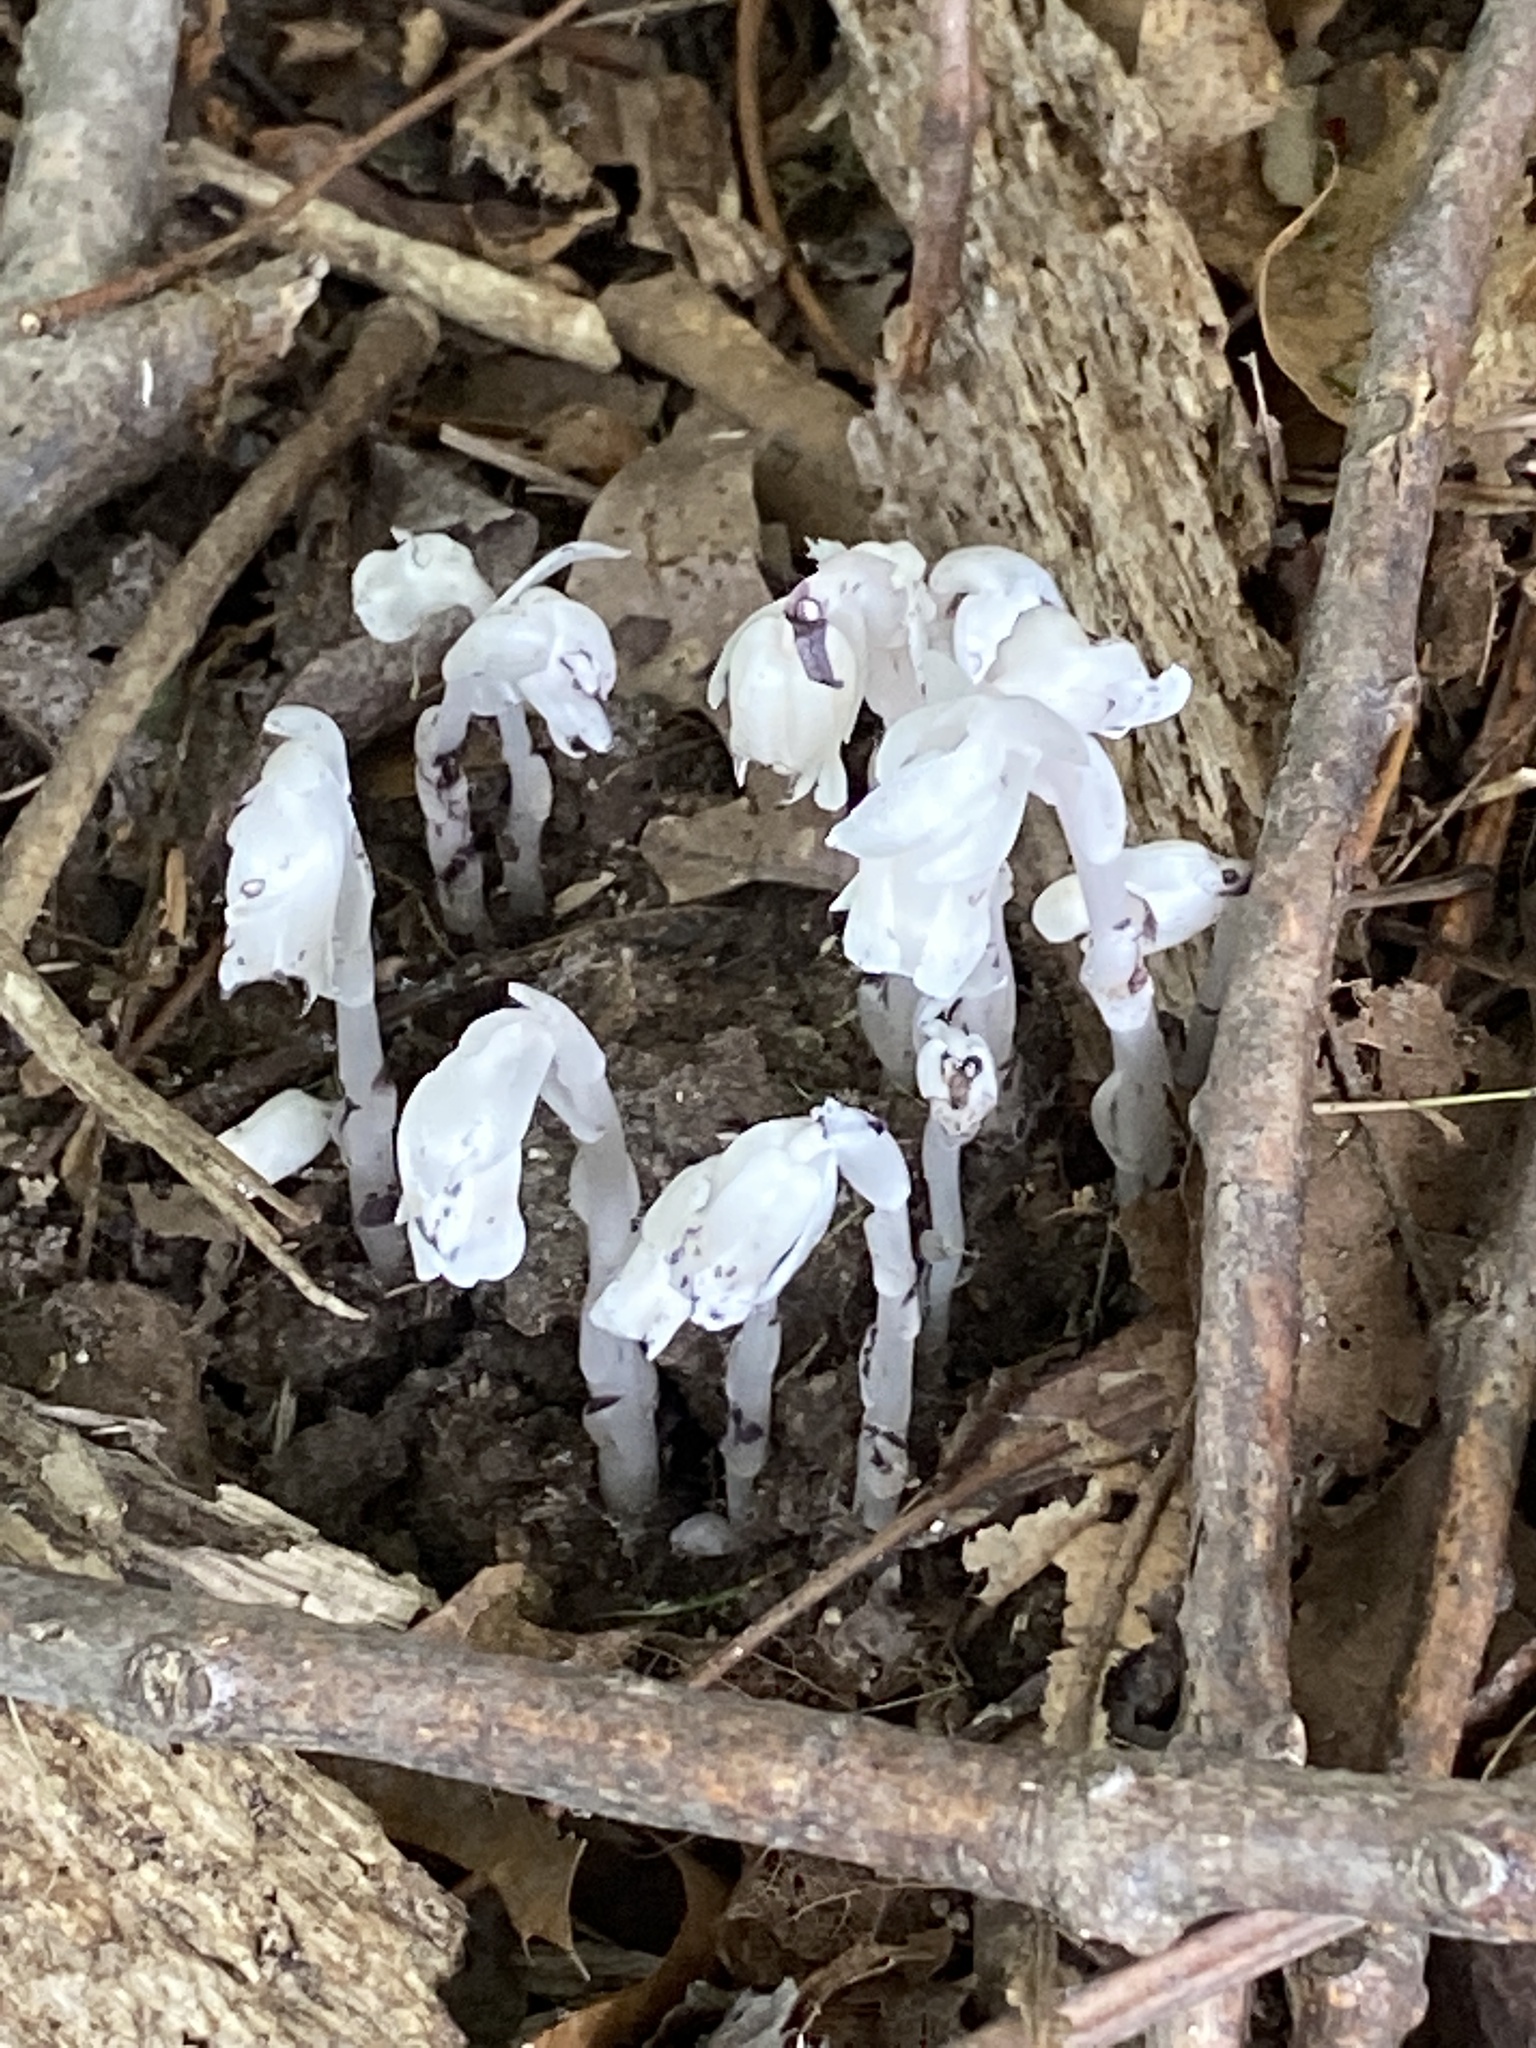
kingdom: Plantae
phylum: Tracheophyta
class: Magnoliopsida
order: Ericales
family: Ericaceae
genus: Monotropa
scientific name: Monotropa uniflora
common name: Convulsion root
